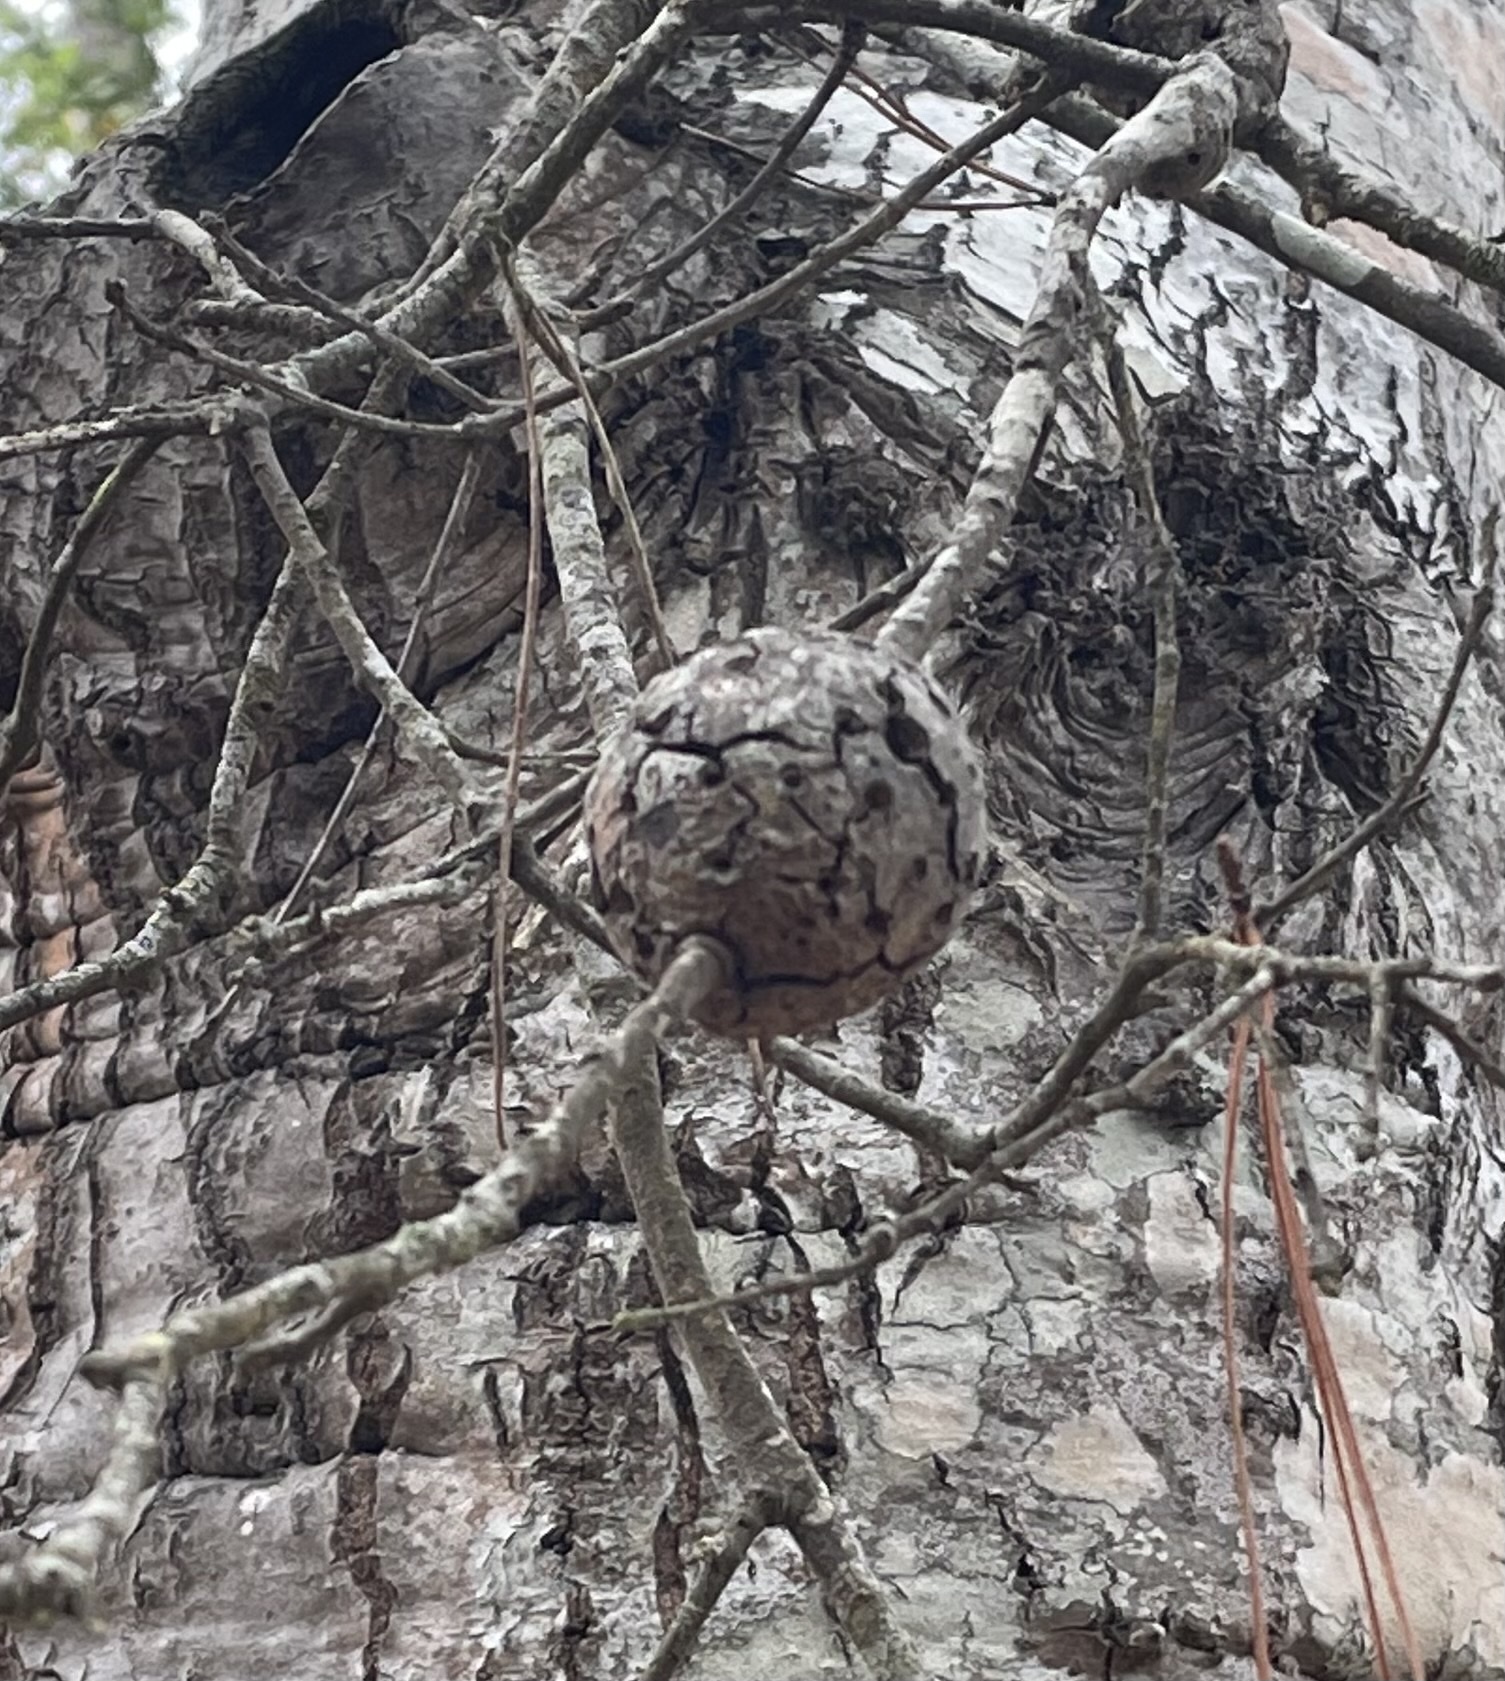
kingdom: Animalia
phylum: Arthropoda
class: Insecta
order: Hymenoptera
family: Cynipidae
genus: Callirhytis
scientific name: Callirhytis
